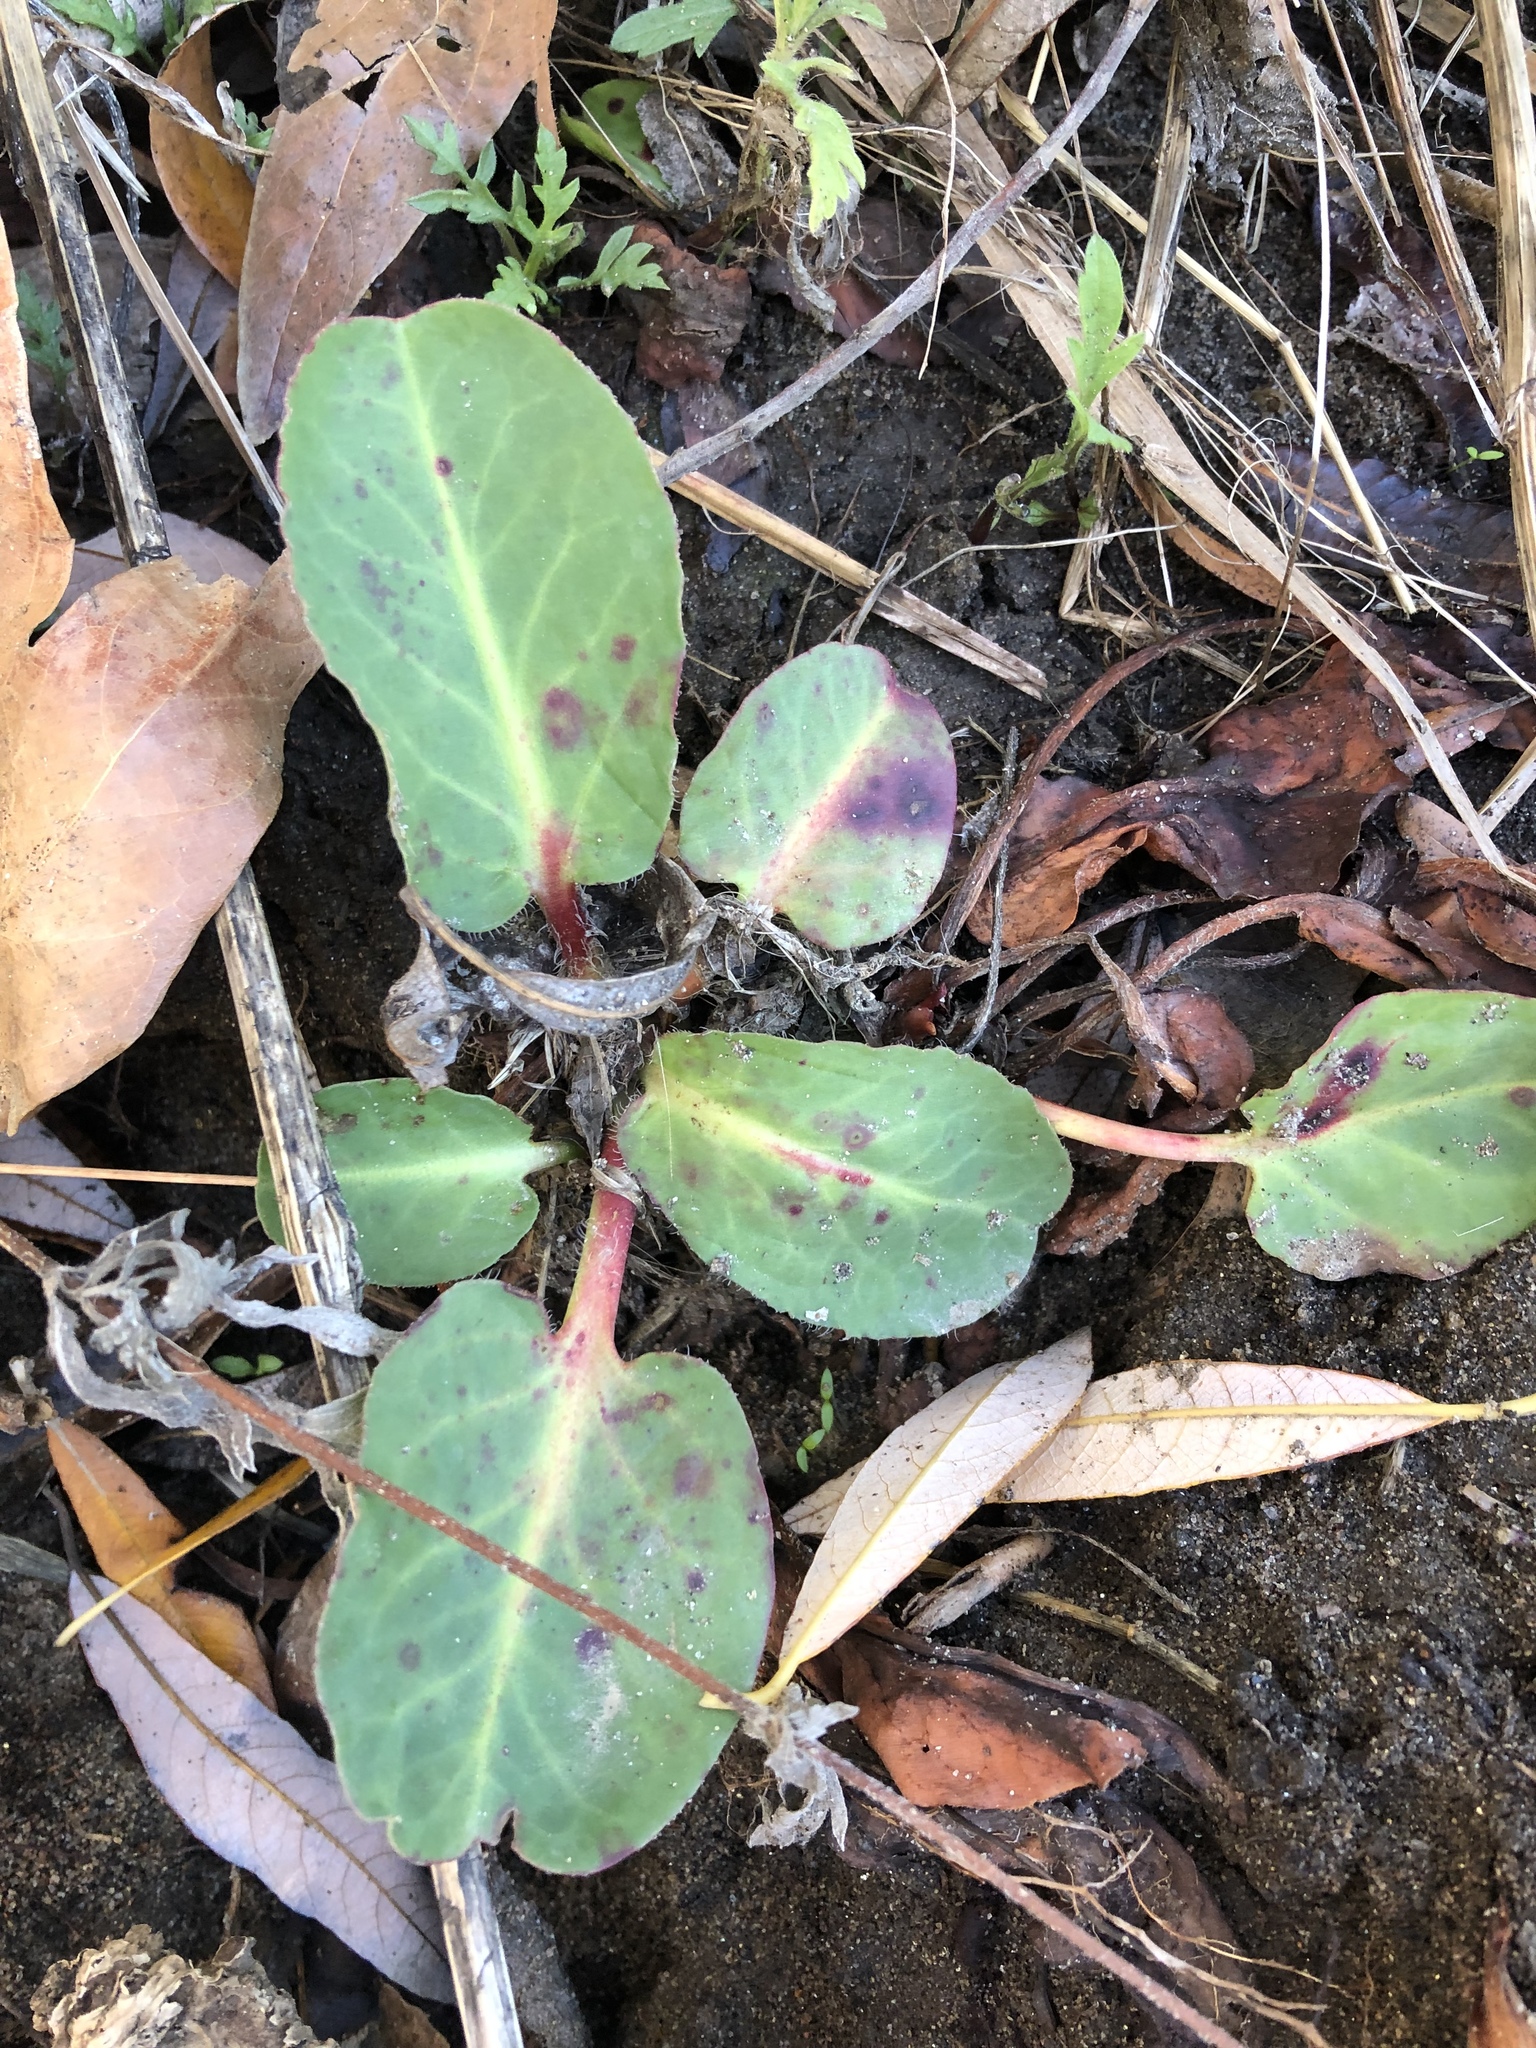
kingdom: Plantae
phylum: Tracheophyta
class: Magnoliopsida
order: Piperales
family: Saururaceae
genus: Anemopsis
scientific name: Anemopsis californica
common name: Apache-beads
